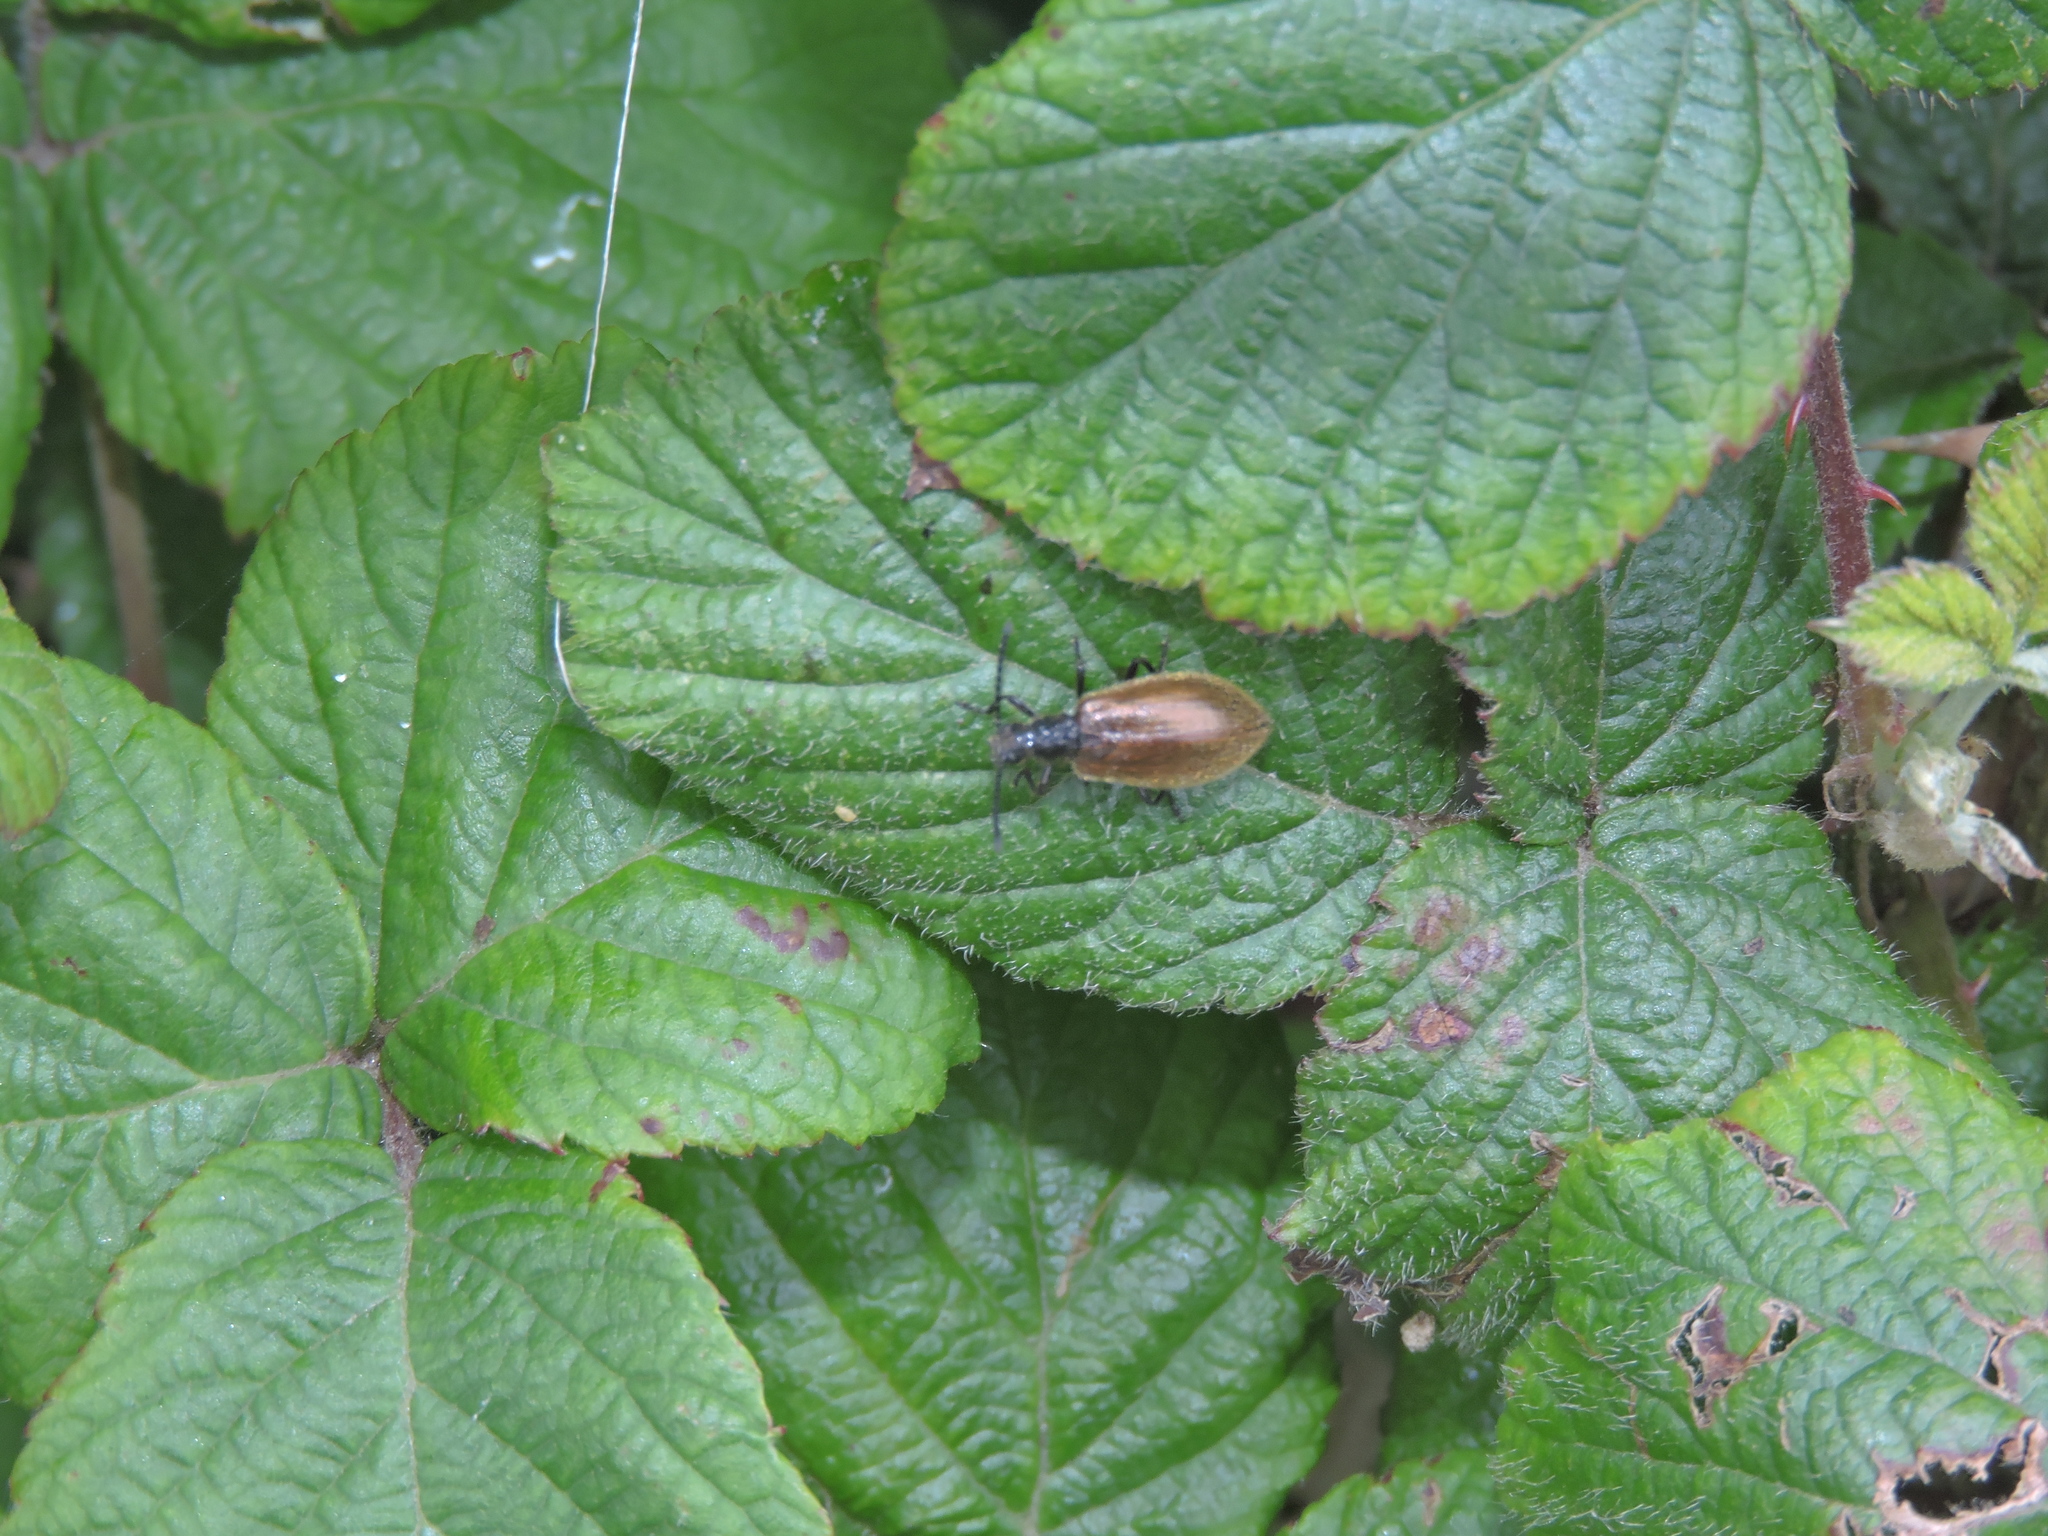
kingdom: Animalia
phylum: Arthropoda
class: Insecta
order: Coleoptera
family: Tenebrionidae
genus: Lagria
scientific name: Lagria hirta
